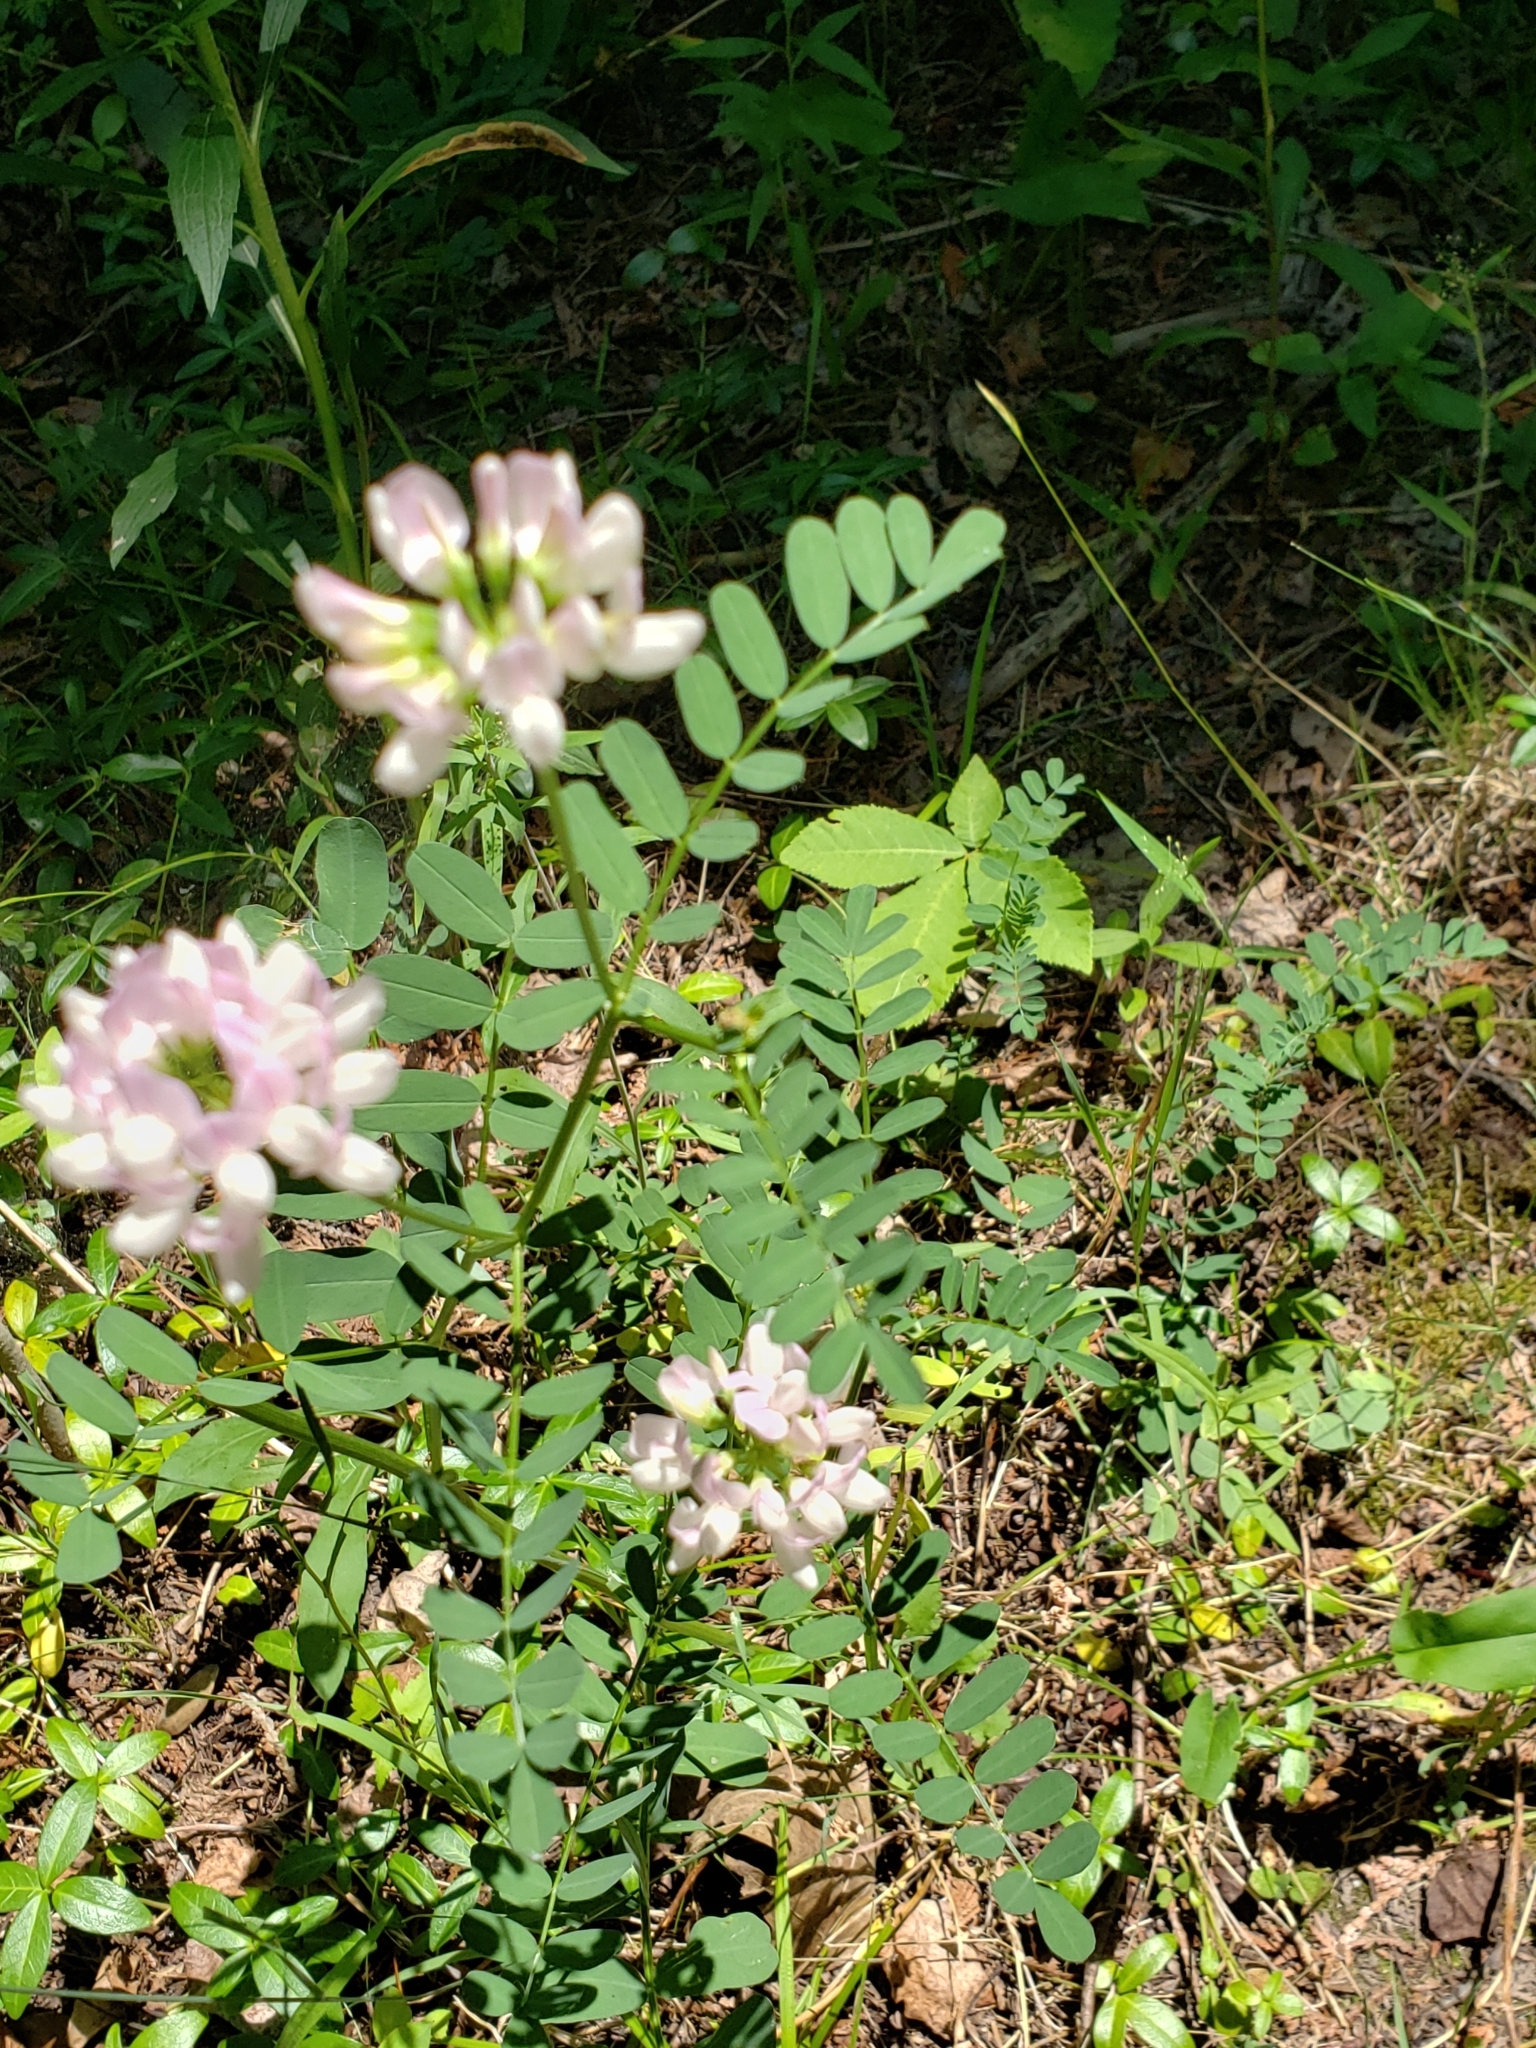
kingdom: Plantae
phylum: Tracheophyta
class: Magnoliopsida
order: Fabales
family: Fabaceae
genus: Coronilla
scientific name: Coronilla varia
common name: Crownvetch
